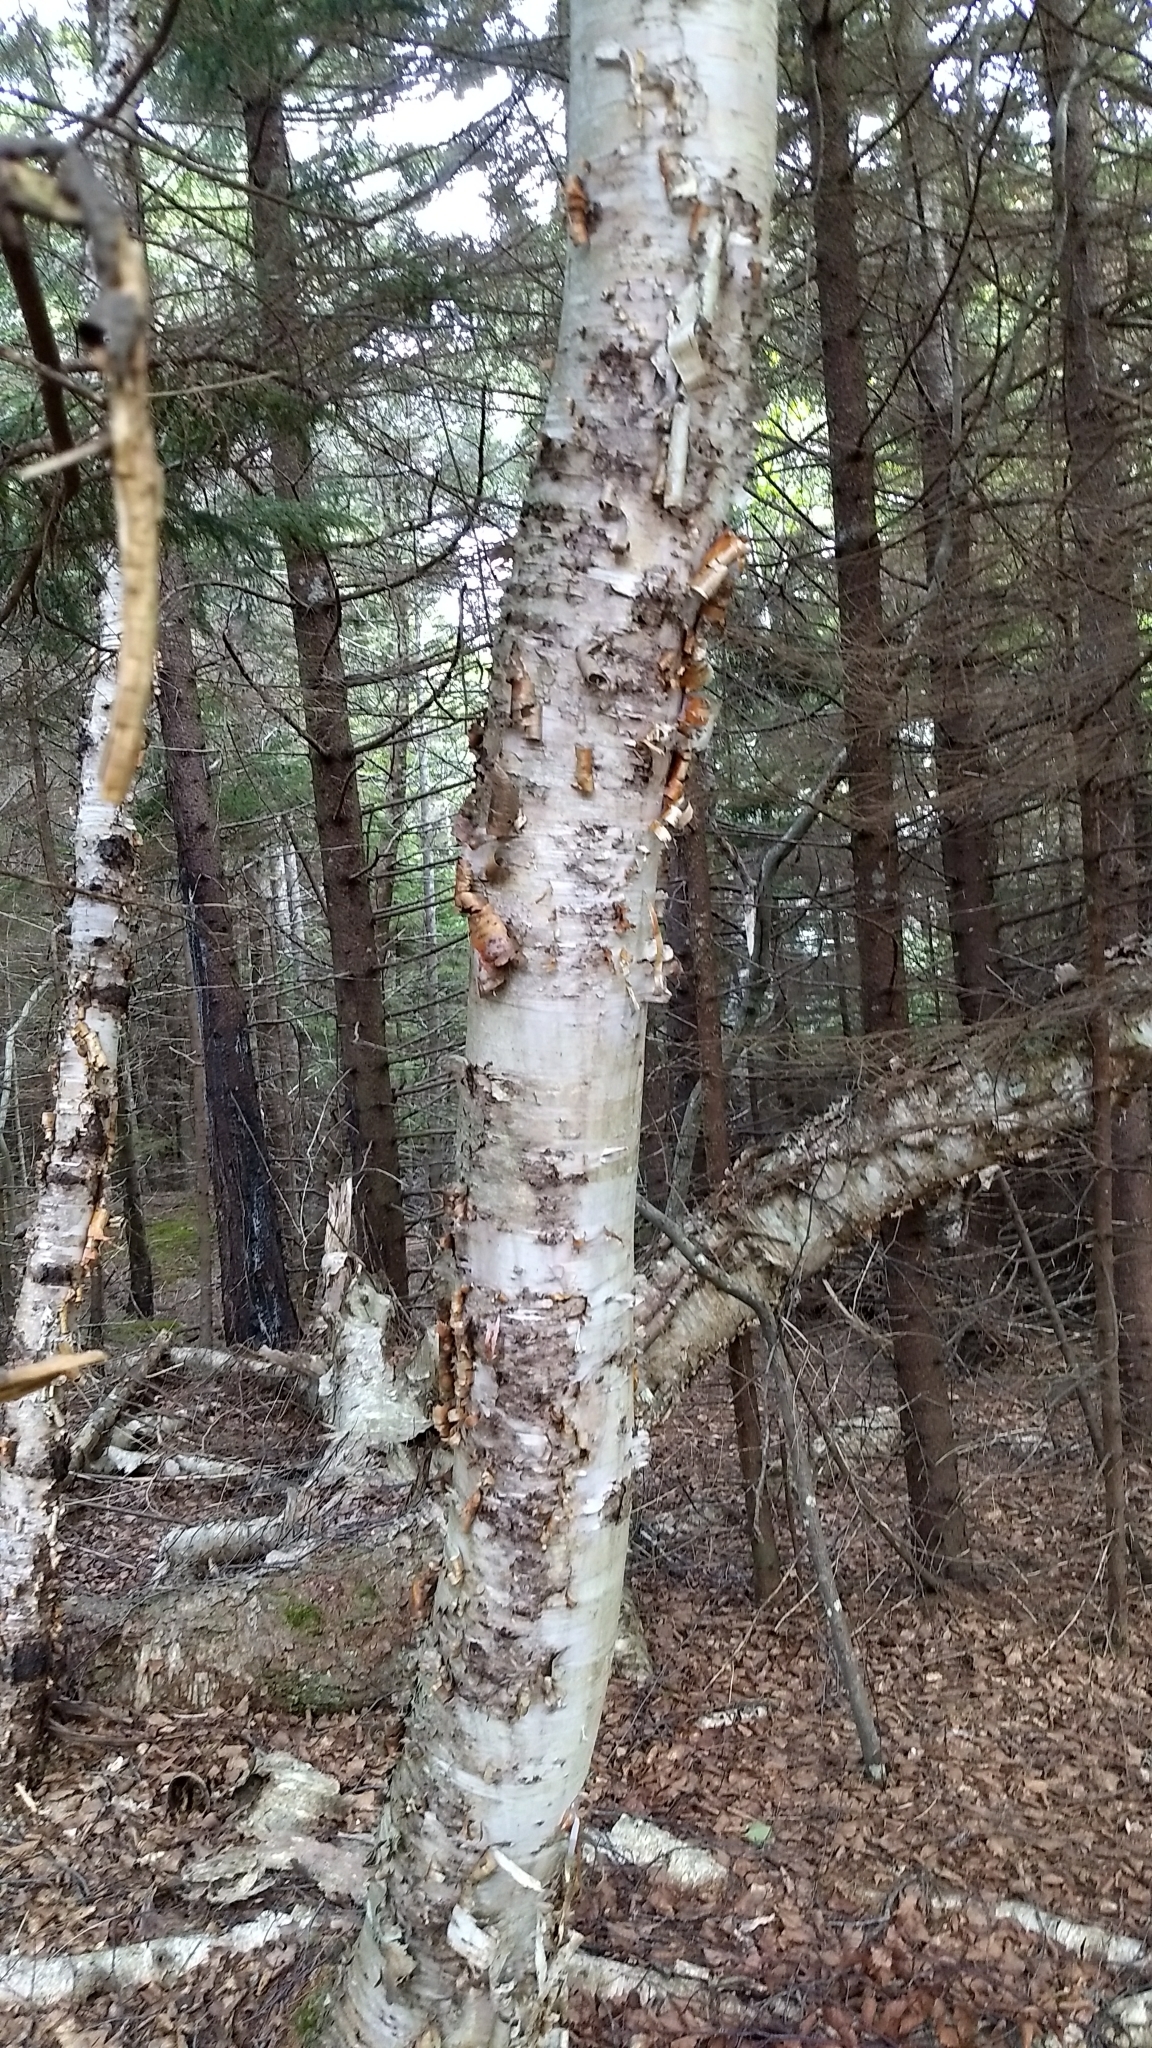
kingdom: Plantae
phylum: Tracheophyta
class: Magnoliopsida
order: Fagales
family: Betulaceae
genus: Betula
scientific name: Betula papyrifera
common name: Paper birch
